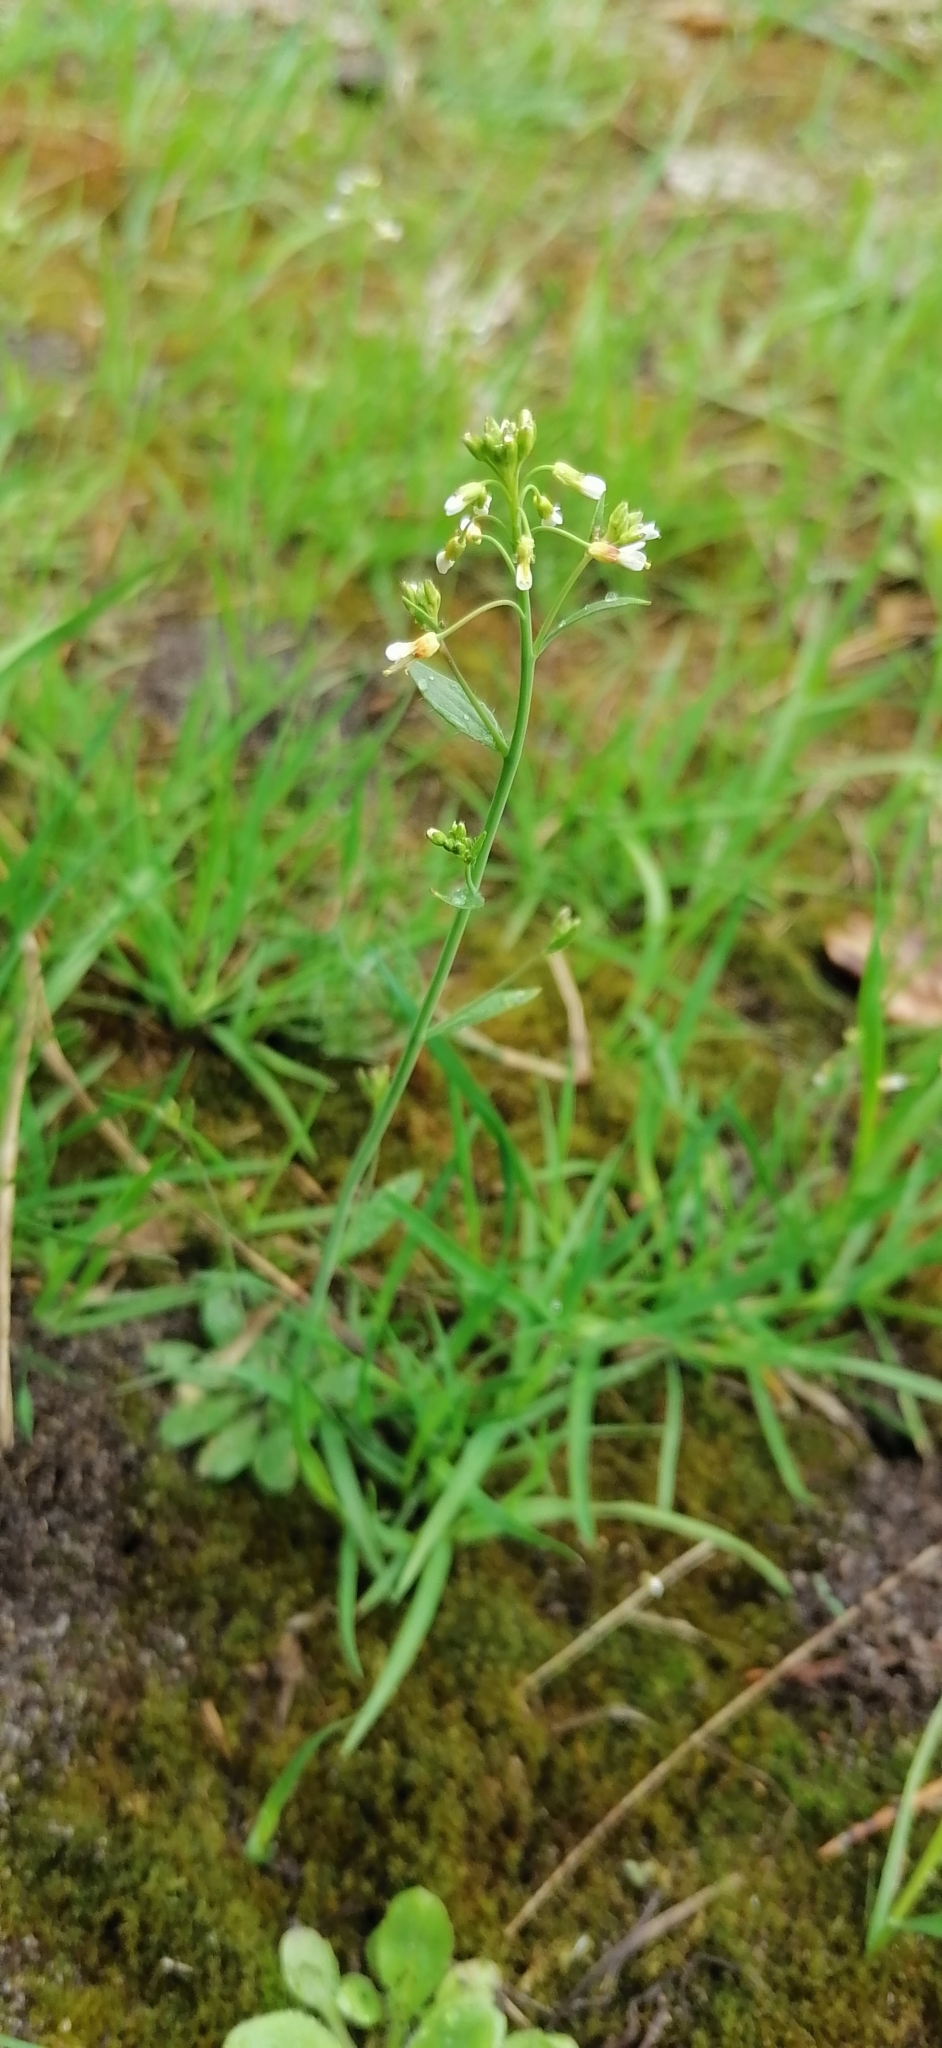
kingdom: Plantae
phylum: Tracheophyta
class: Magnoliopsida
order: Brassicales
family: Brassicaceae
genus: Capsella
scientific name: Capsella bursa-pastoris
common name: Shepherd's purse
